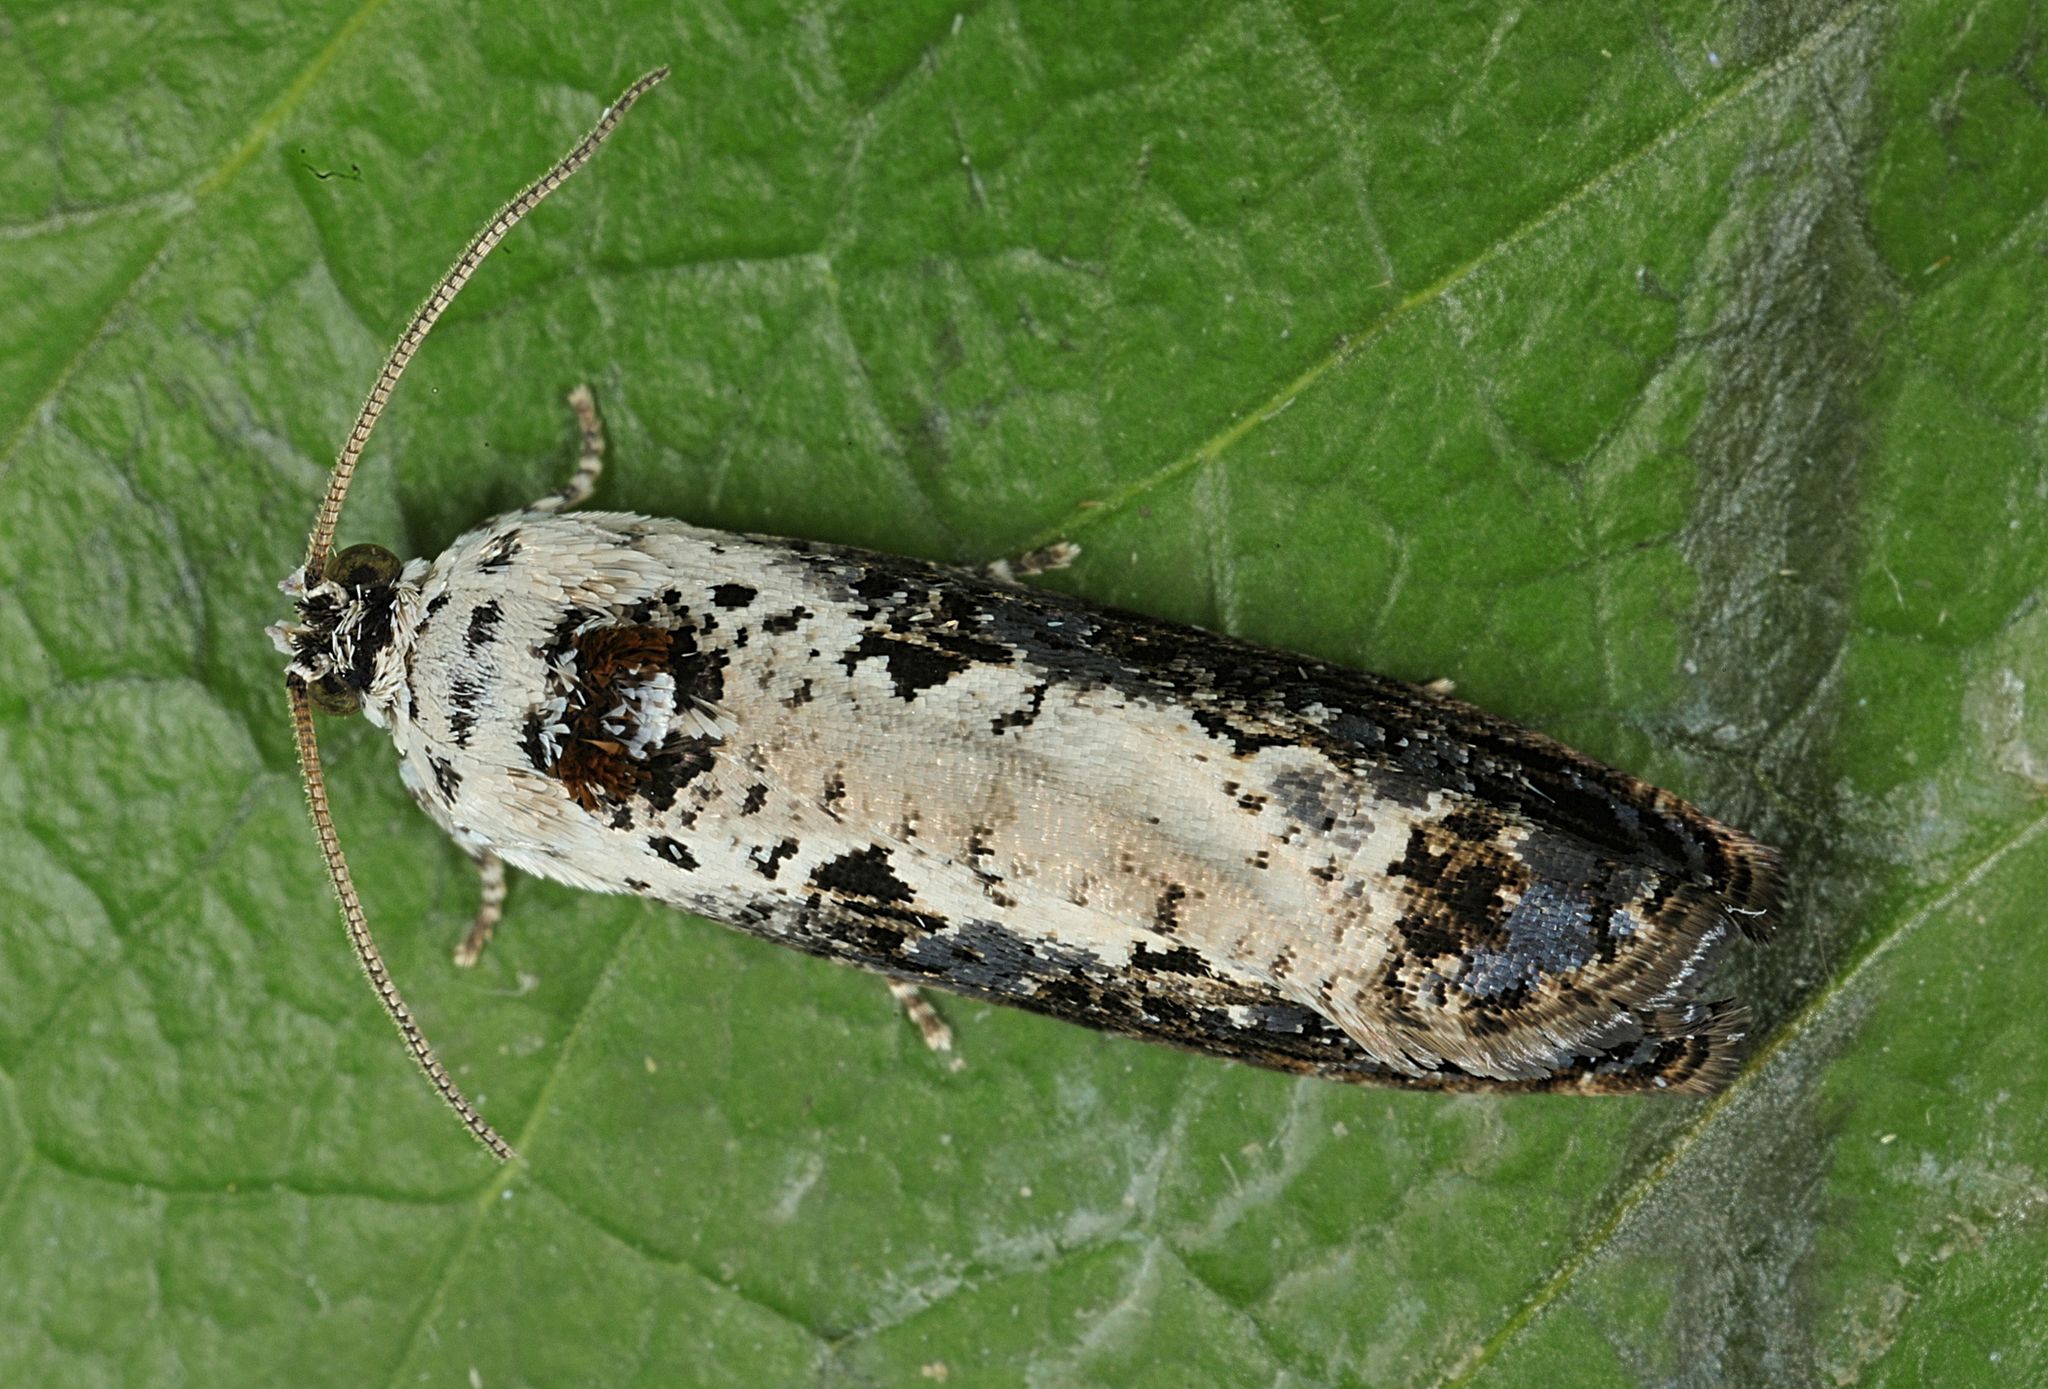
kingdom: Animalia
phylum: Arthropoda
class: Insecta
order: Lepidoptera
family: Tortricidae
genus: Hedya
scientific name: Hedya salicella
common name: Large tortricid moth
